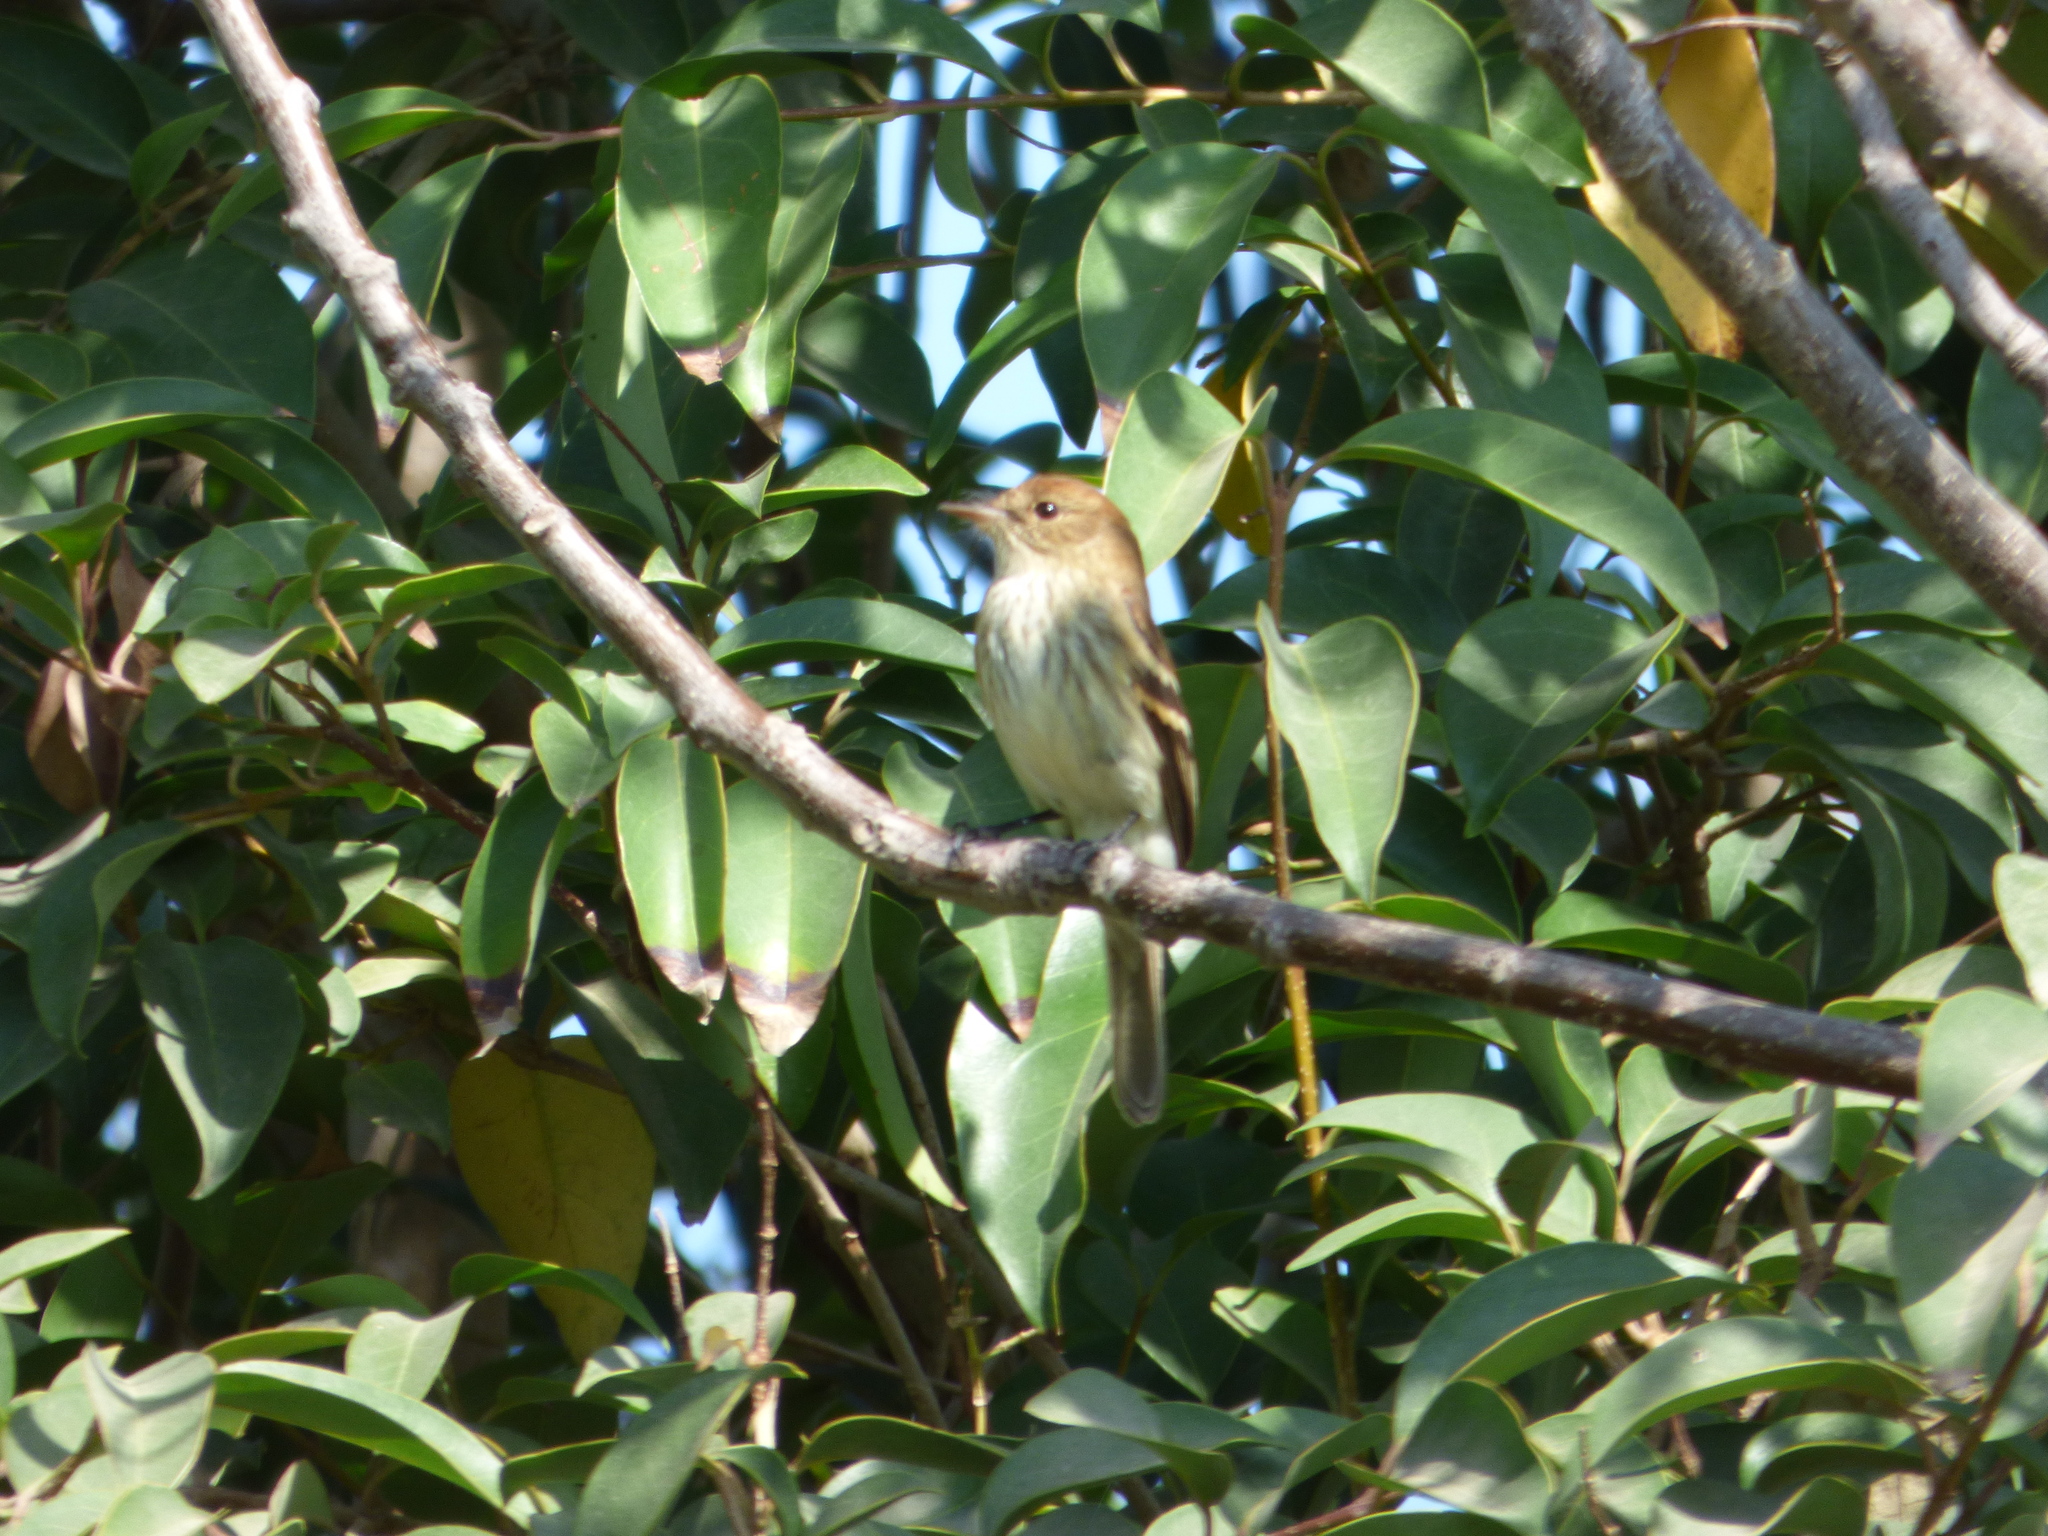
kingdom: Animalia
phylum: Chordata
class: Aves
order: Passeriformes
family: Tyrannidae
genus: Myiophobus
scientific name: Myiophobus fasciatus
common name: Bran-colored flycatcher
